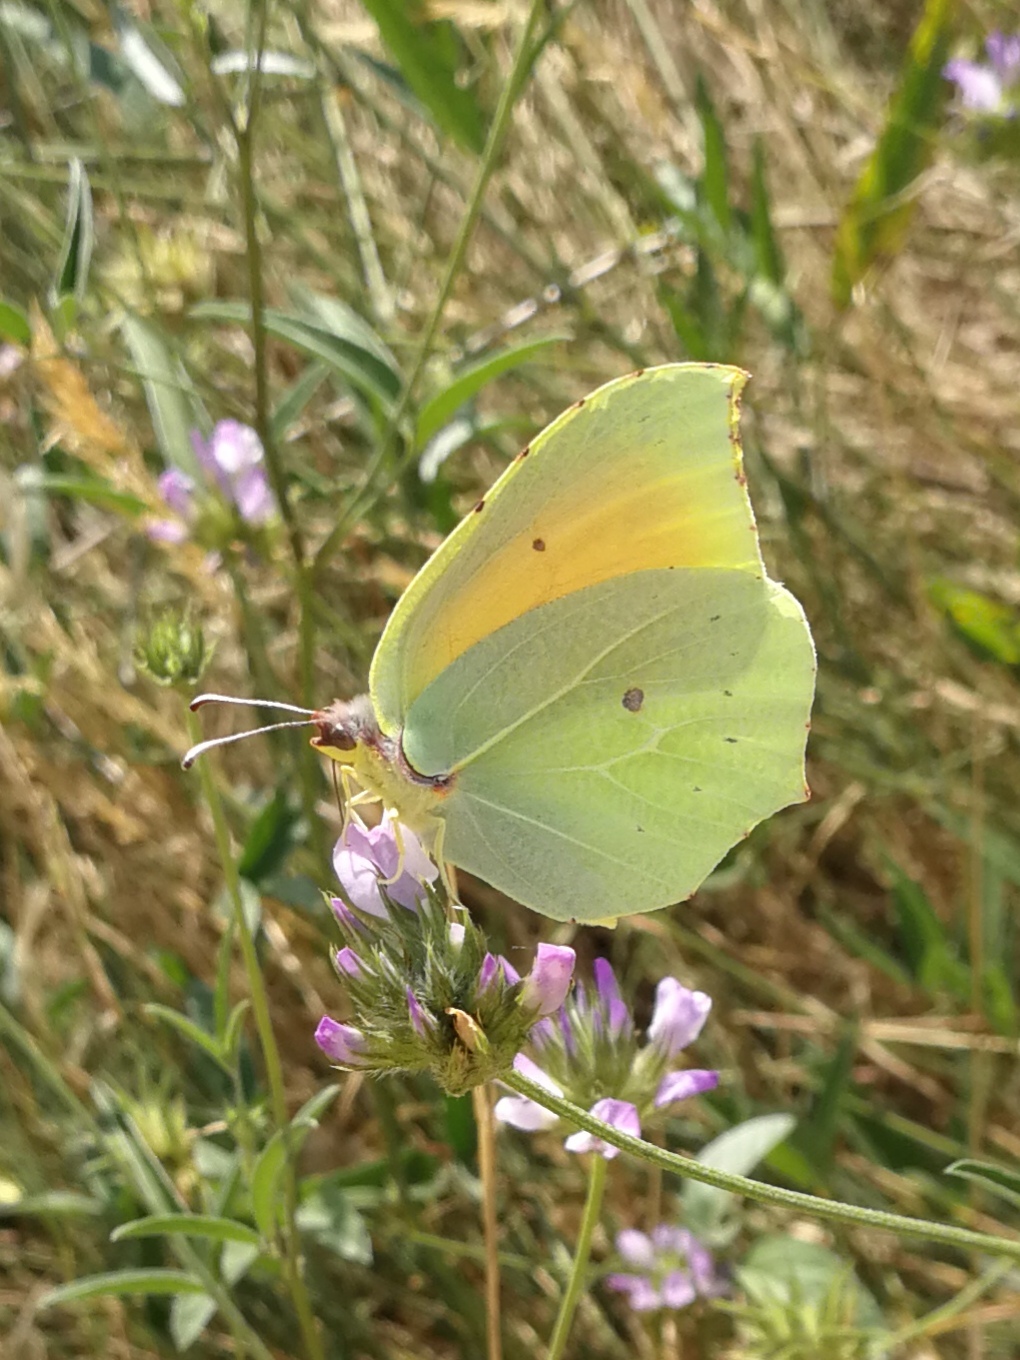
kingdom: Animalia
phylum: Arthropoda
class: Insecta
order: Lepidoptera
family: Pieridae
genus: Gonepteryx
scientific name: Gonepteryx cleopatra
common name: Cleopatra
